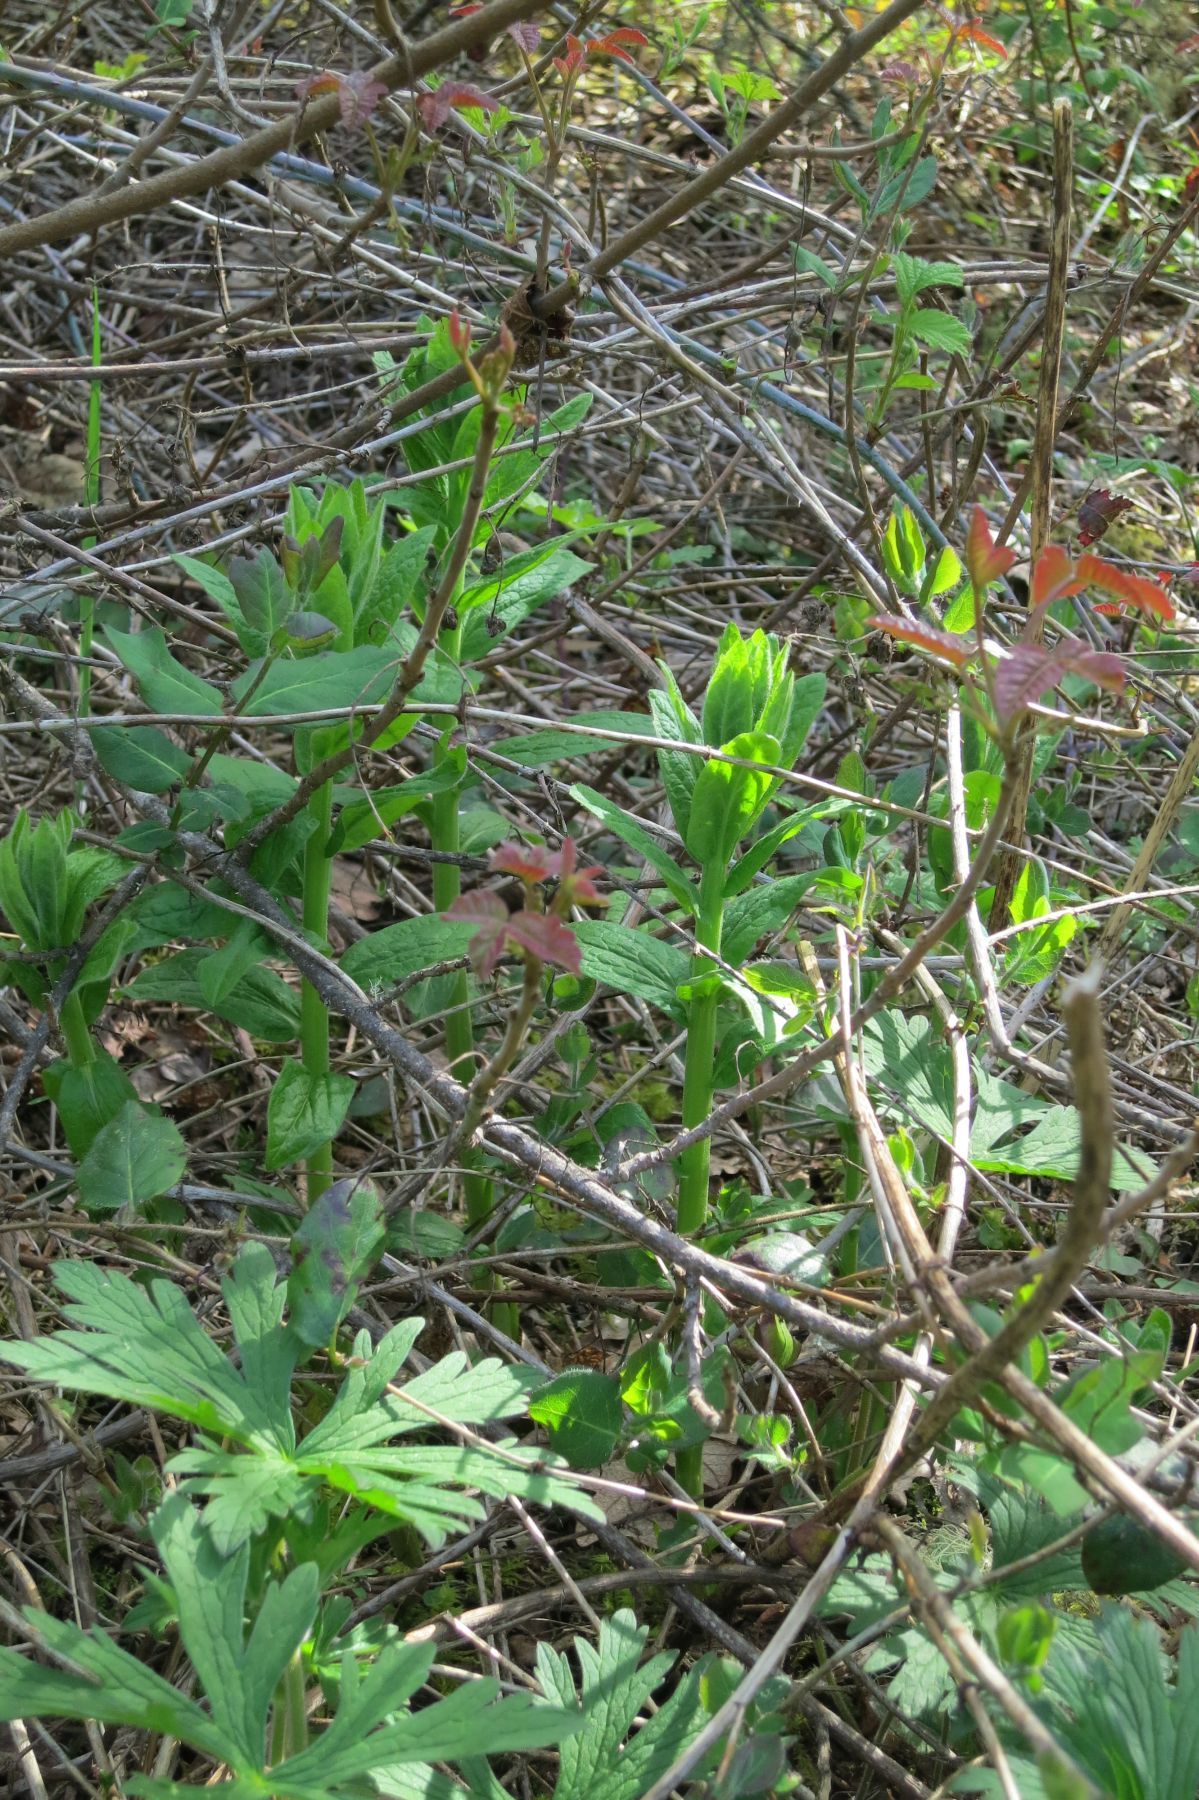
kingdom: Plantae
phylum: Tracheophyta
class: Magnoliopsida
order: Asterales
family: Asteraceae
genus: Eucephalus
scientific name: Eucephalus vialis
